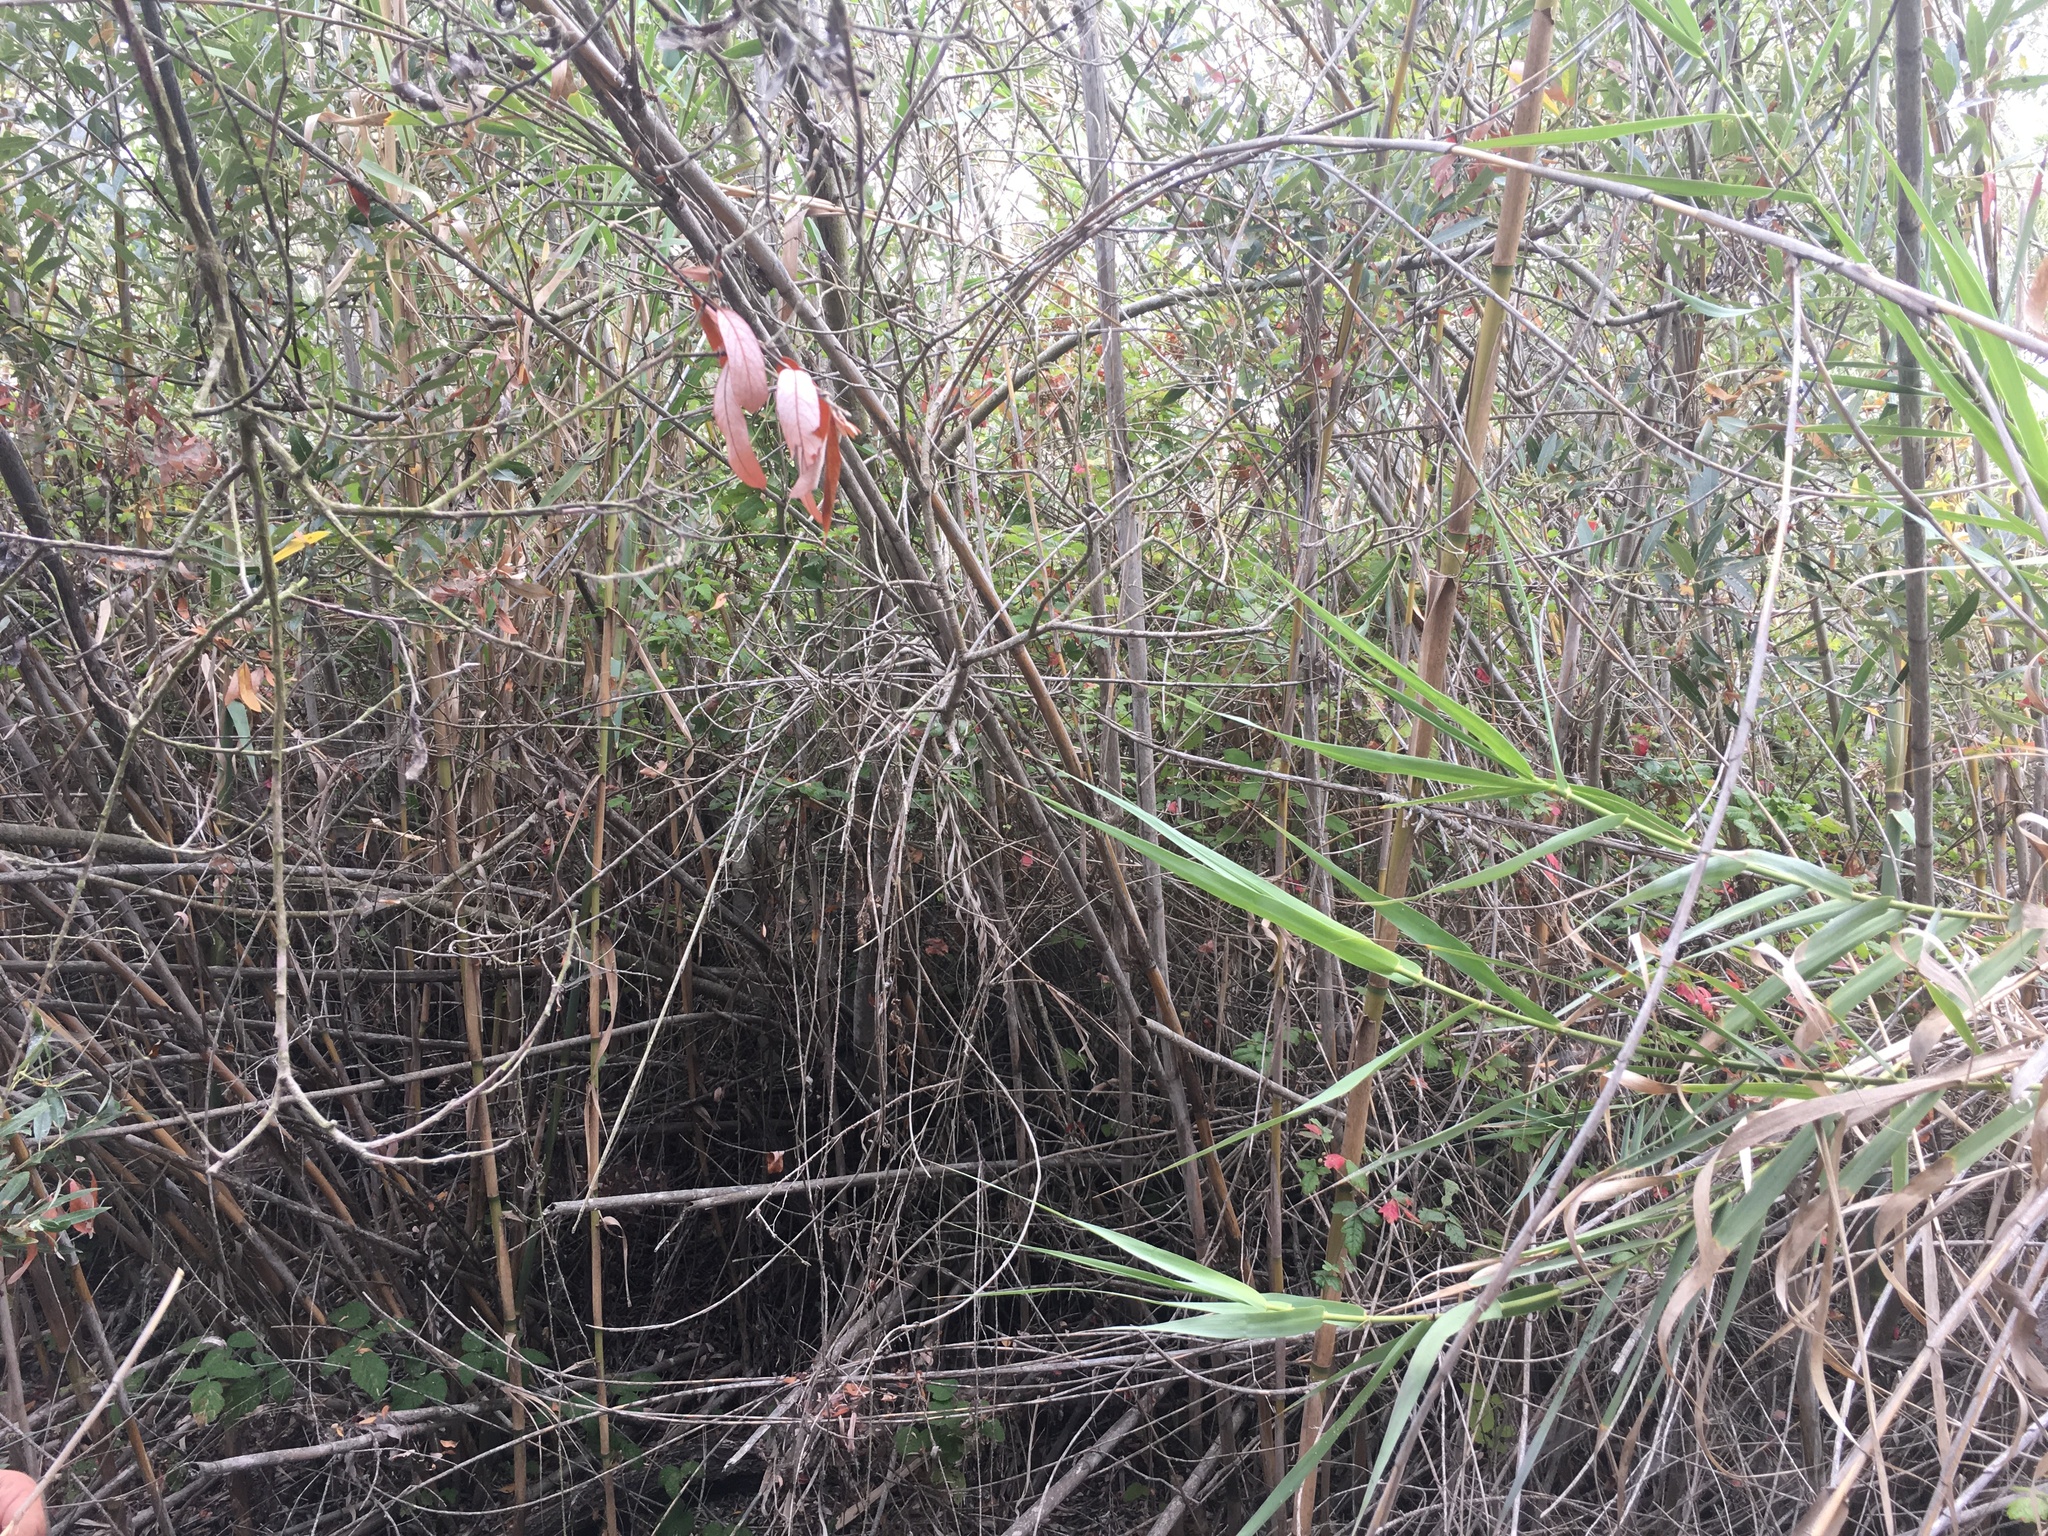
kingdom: Plantae
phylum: Tracheophyta
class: Magnoliopsida
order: Sapindales
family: Anacardiaceae
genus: Toxicodendron
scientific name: Toxicodendron diversilobum
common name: Pacific poison-oak
